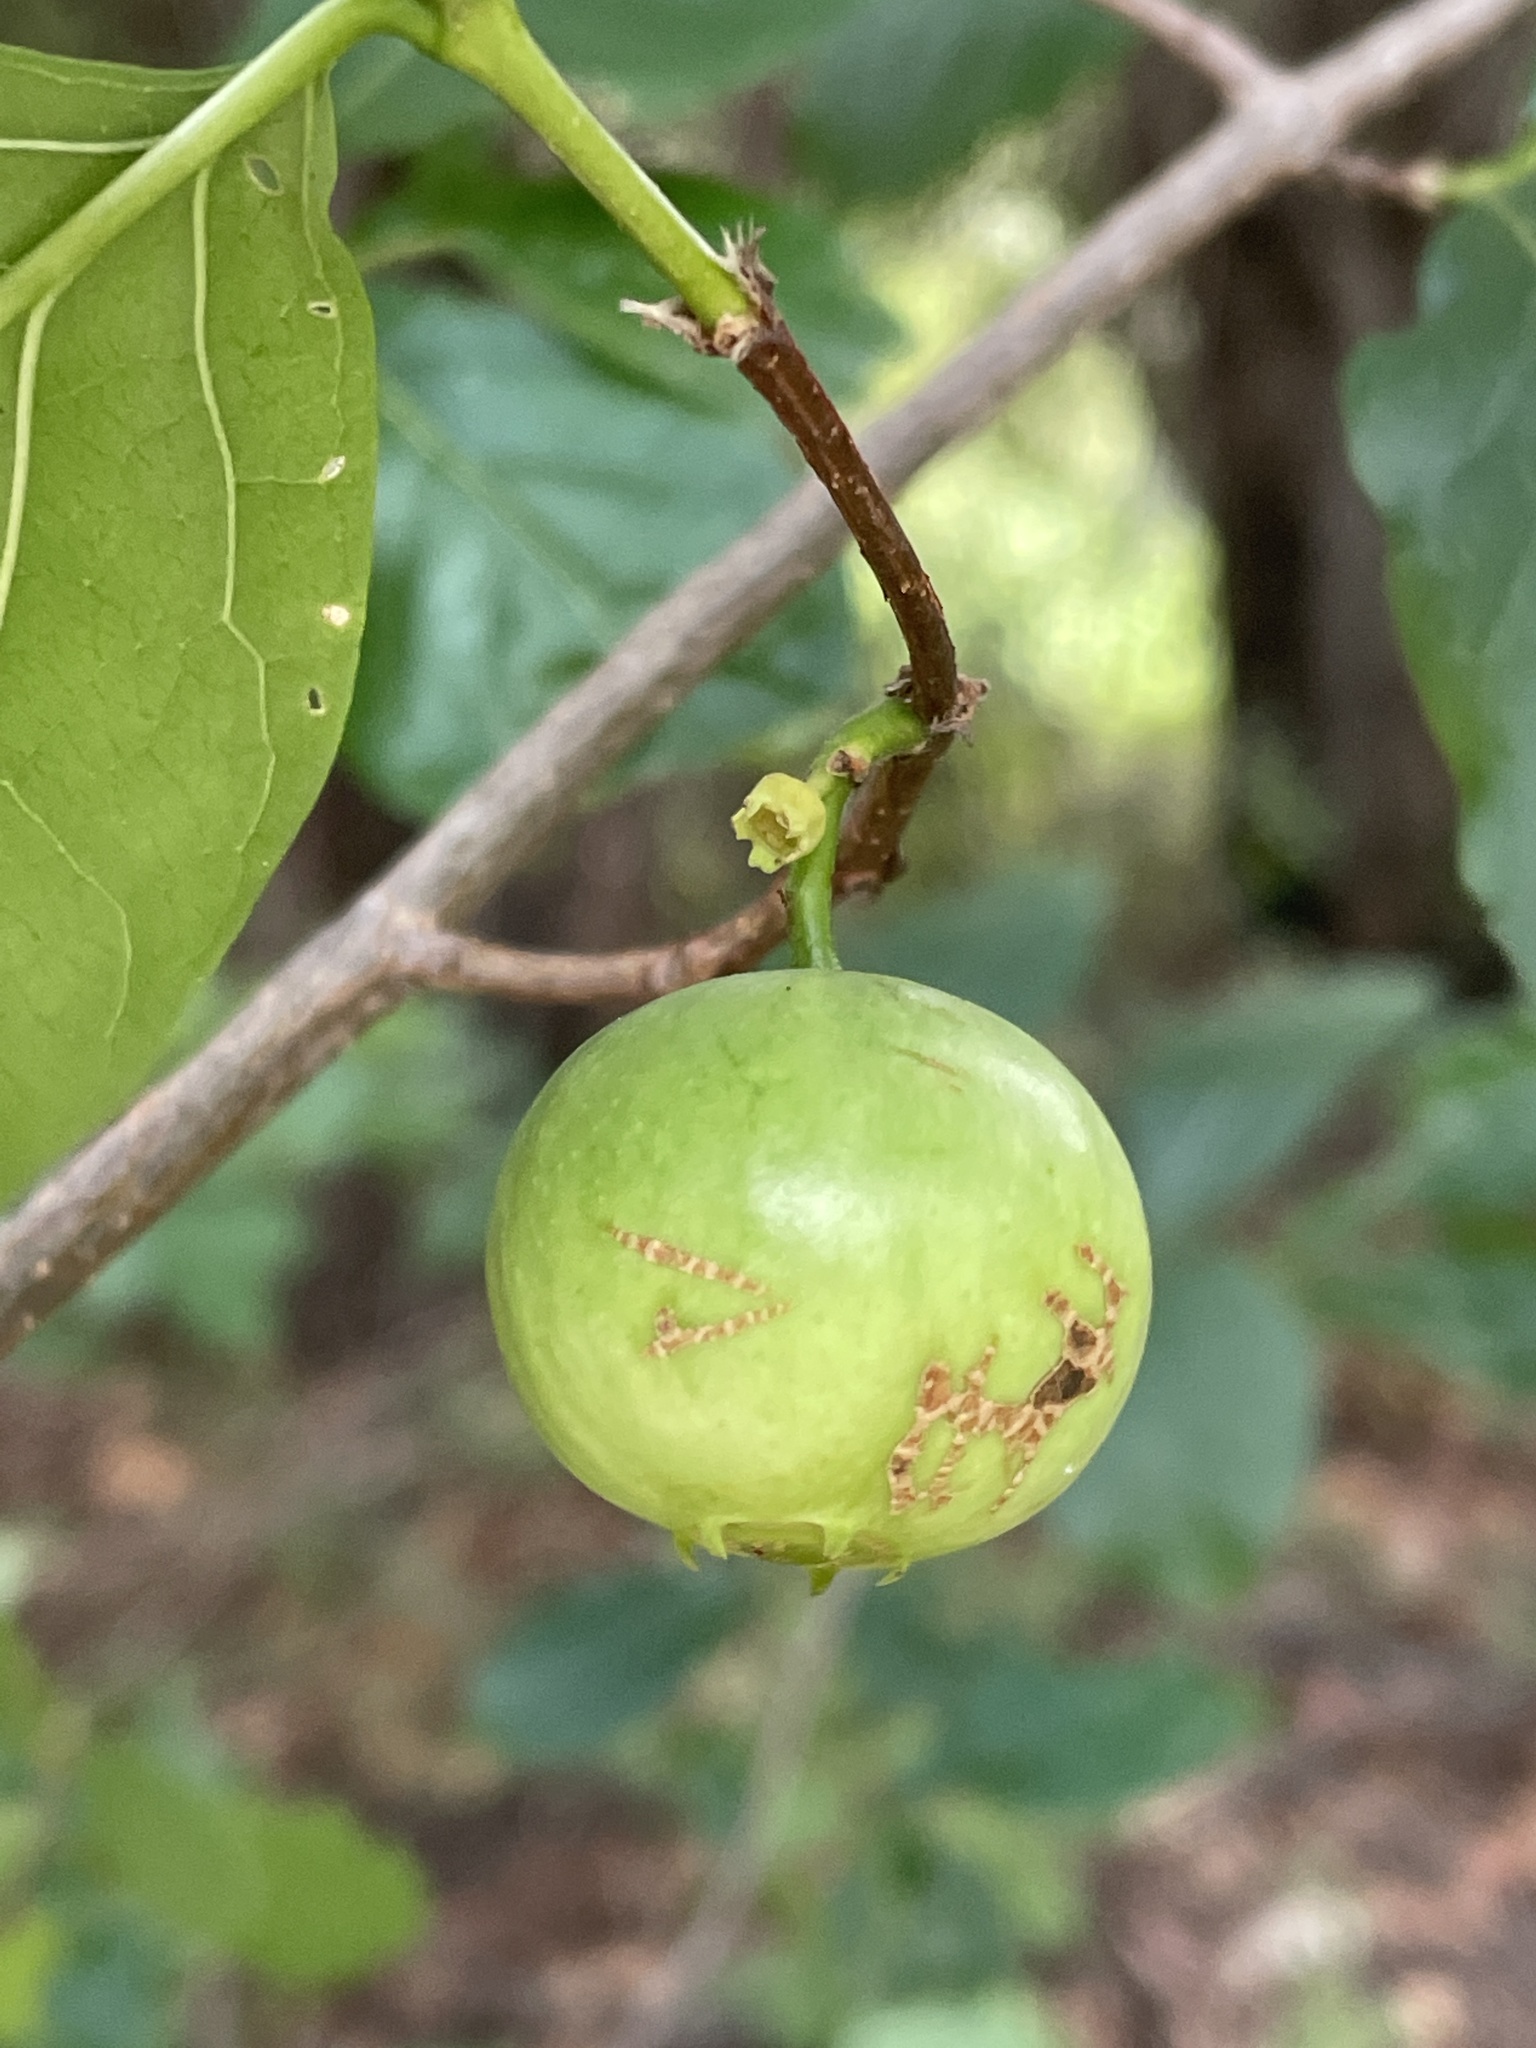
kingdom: Plantae
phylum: Tracheophyta
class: Magnoliopsida
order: Gentianales
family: Rubiaceae
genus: Vangueria
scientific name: Vangueria cyanescens
